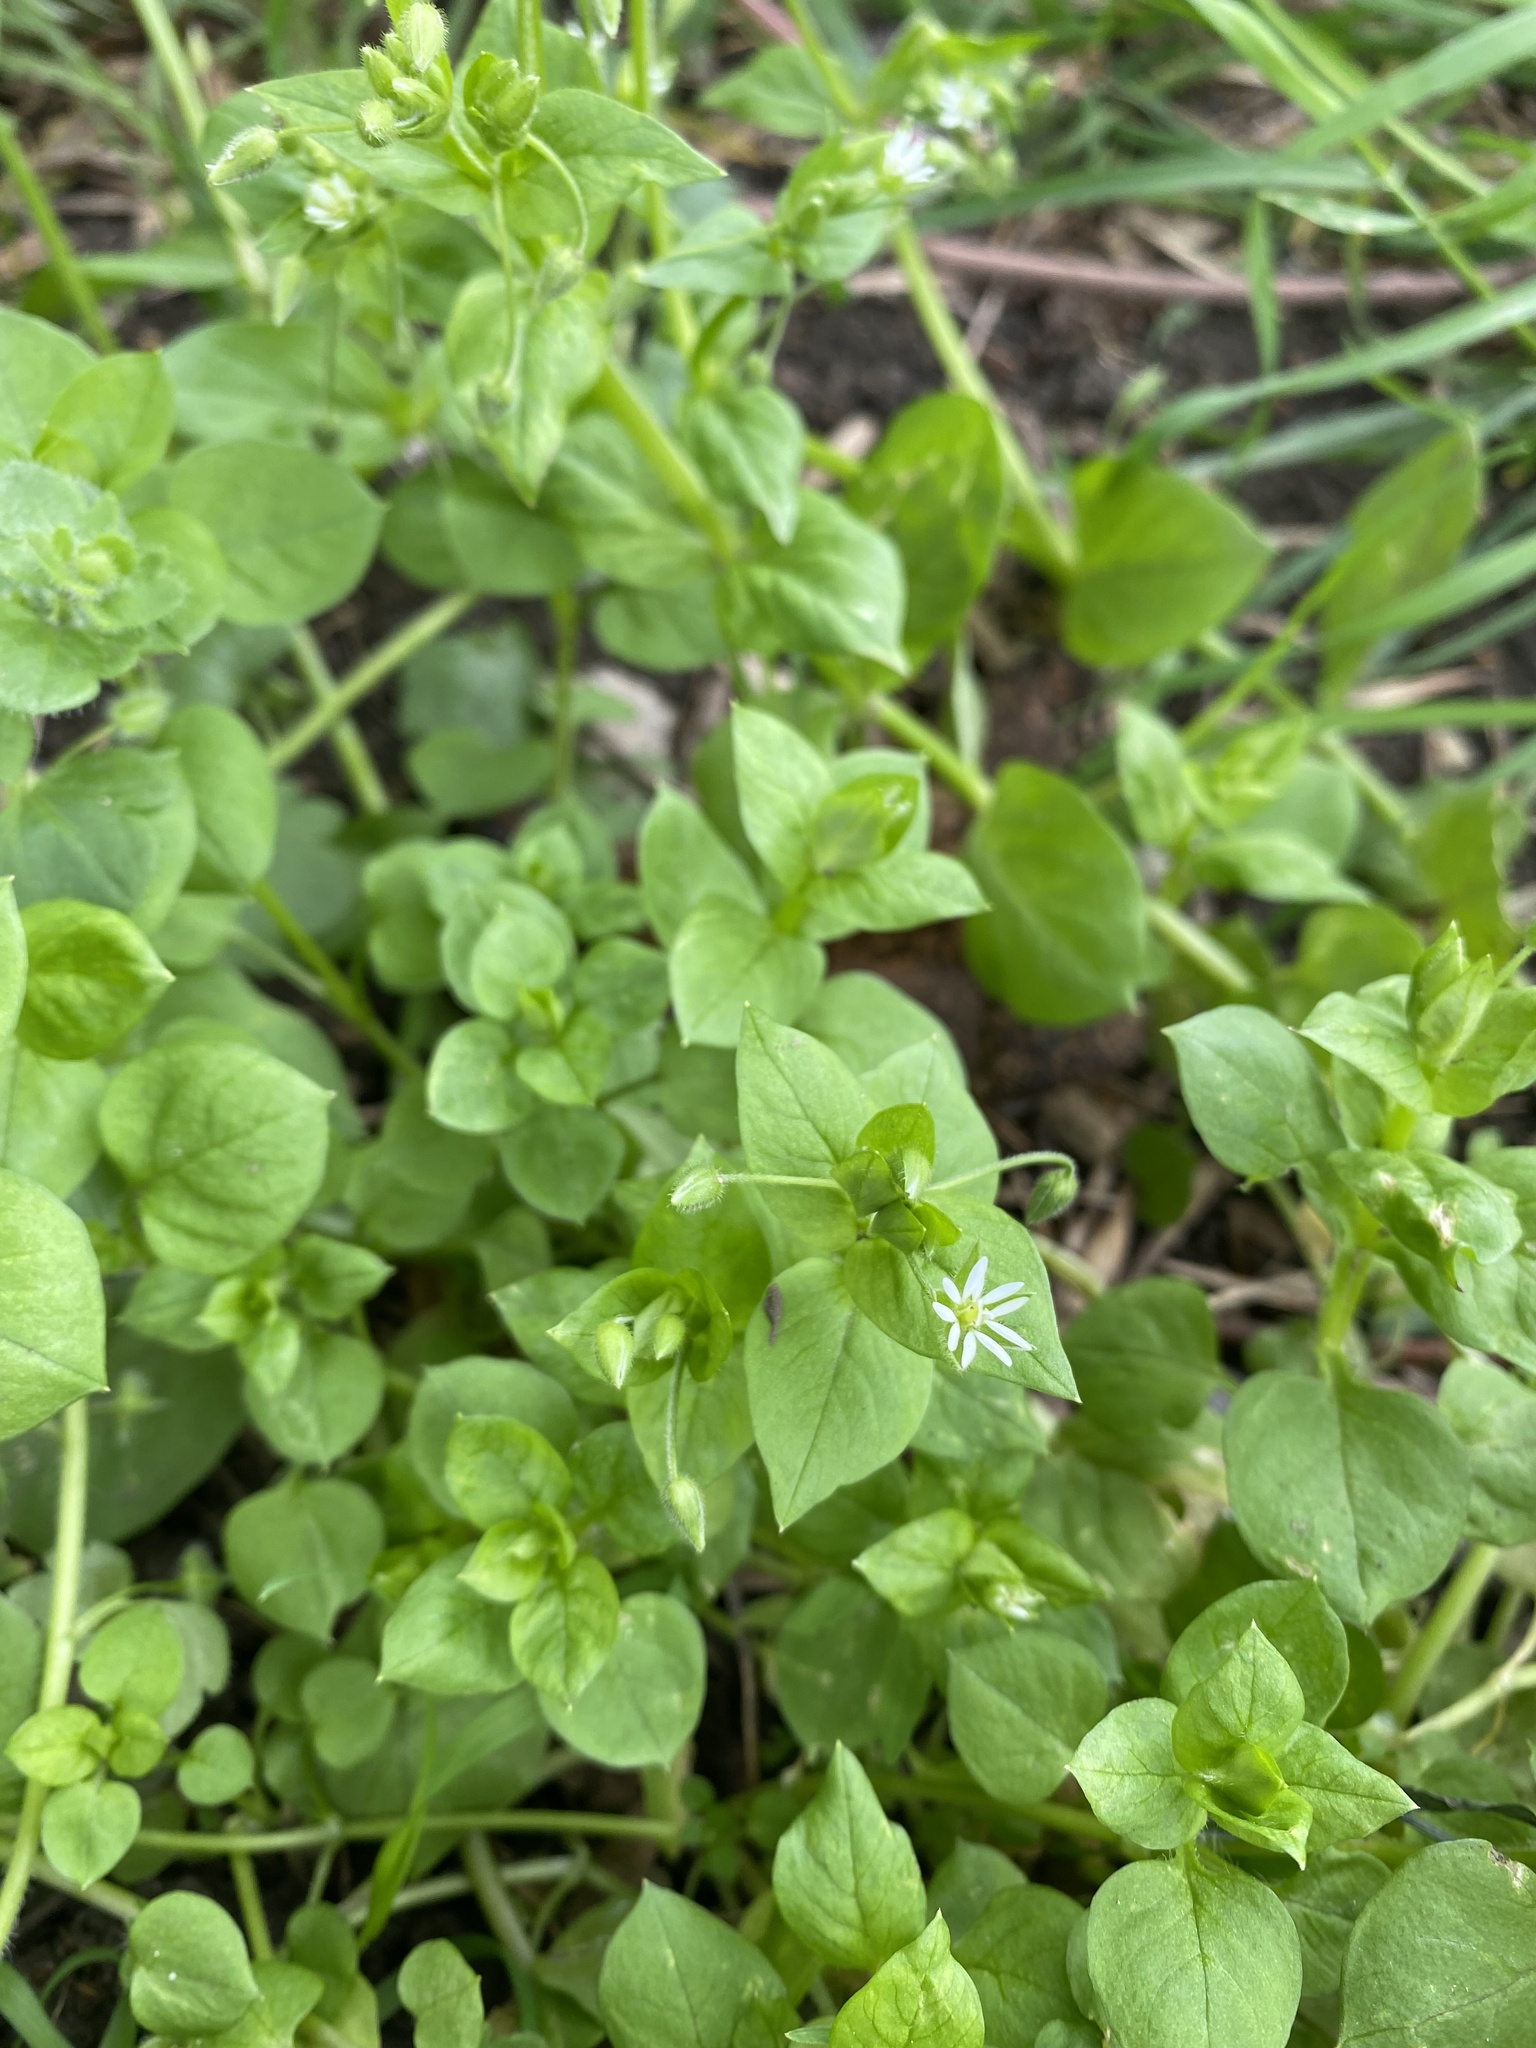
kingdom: Plantae
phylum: Tracheophyta
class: Magnoliopsida
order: Caryophyllales
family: Caryophyllaceae
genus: Stellaria
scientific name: Stellaria media
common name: Common chickweed
